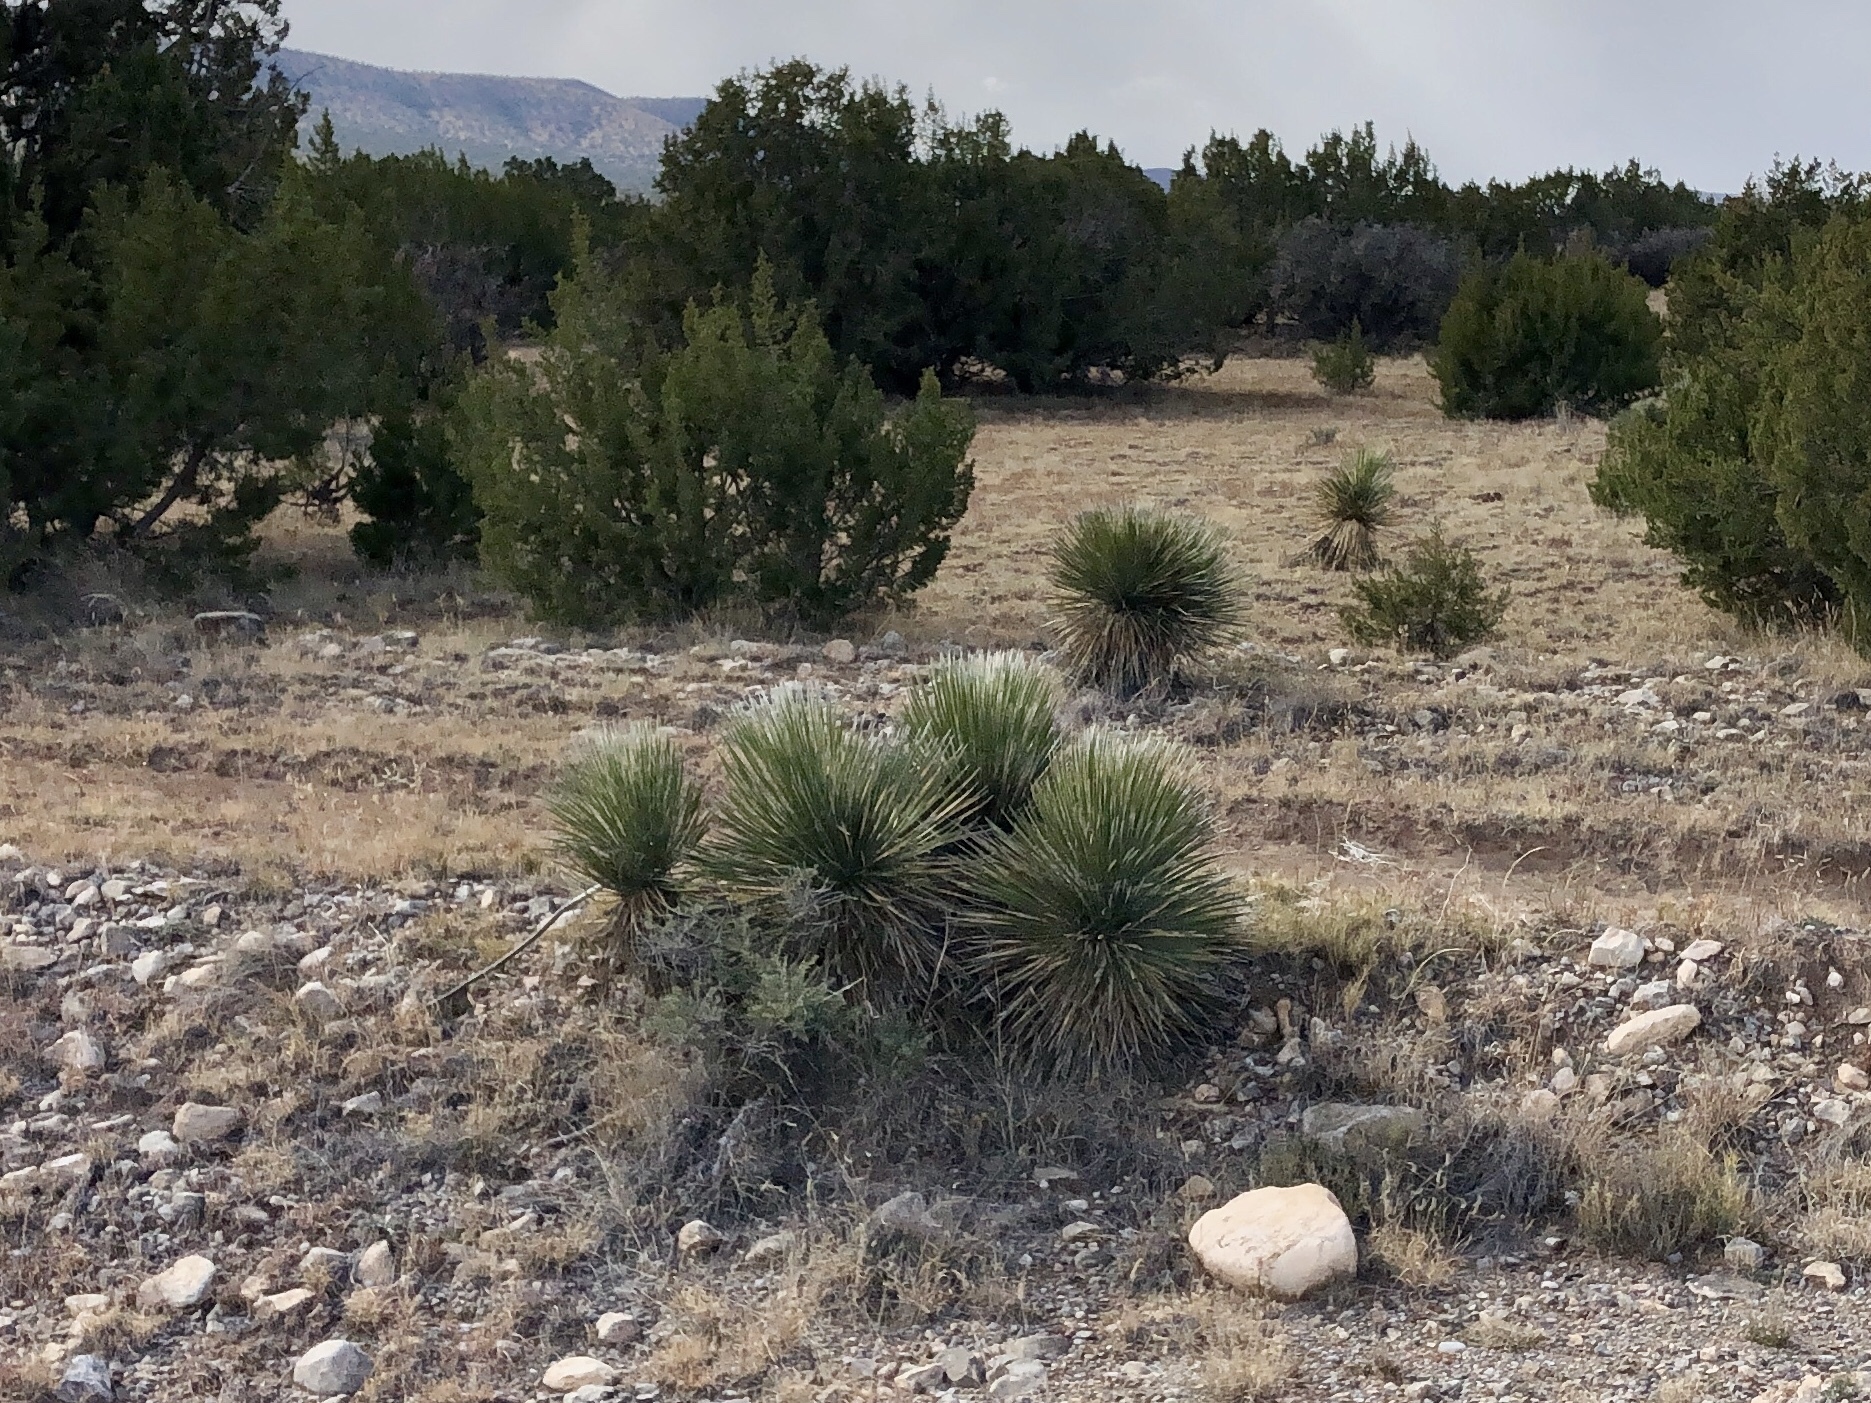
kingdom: Plantae
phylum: Tracheophyta
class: Liliopsida
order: Asparagales
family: Asparagaceae
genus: Yucca
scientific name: Yucca elata
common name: Palmella
